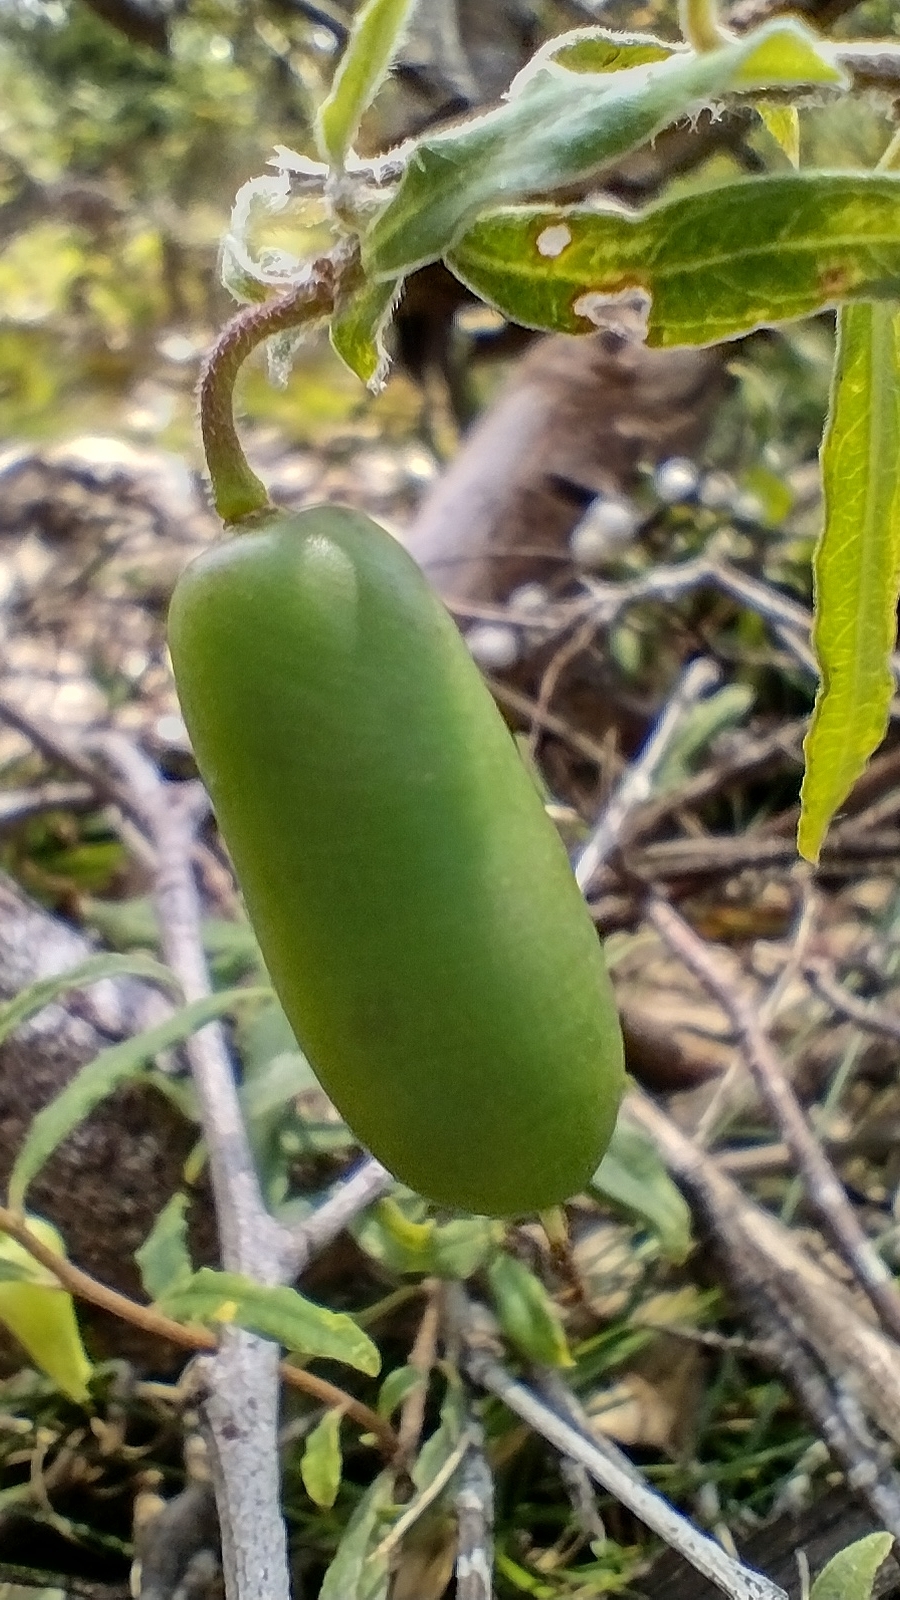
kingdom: Plantae
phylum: Tracheophyta
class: Magnoliopsida
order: Apiales
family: Pittosporaceae
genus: Billardiera
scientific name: Billardiera mutabilis
